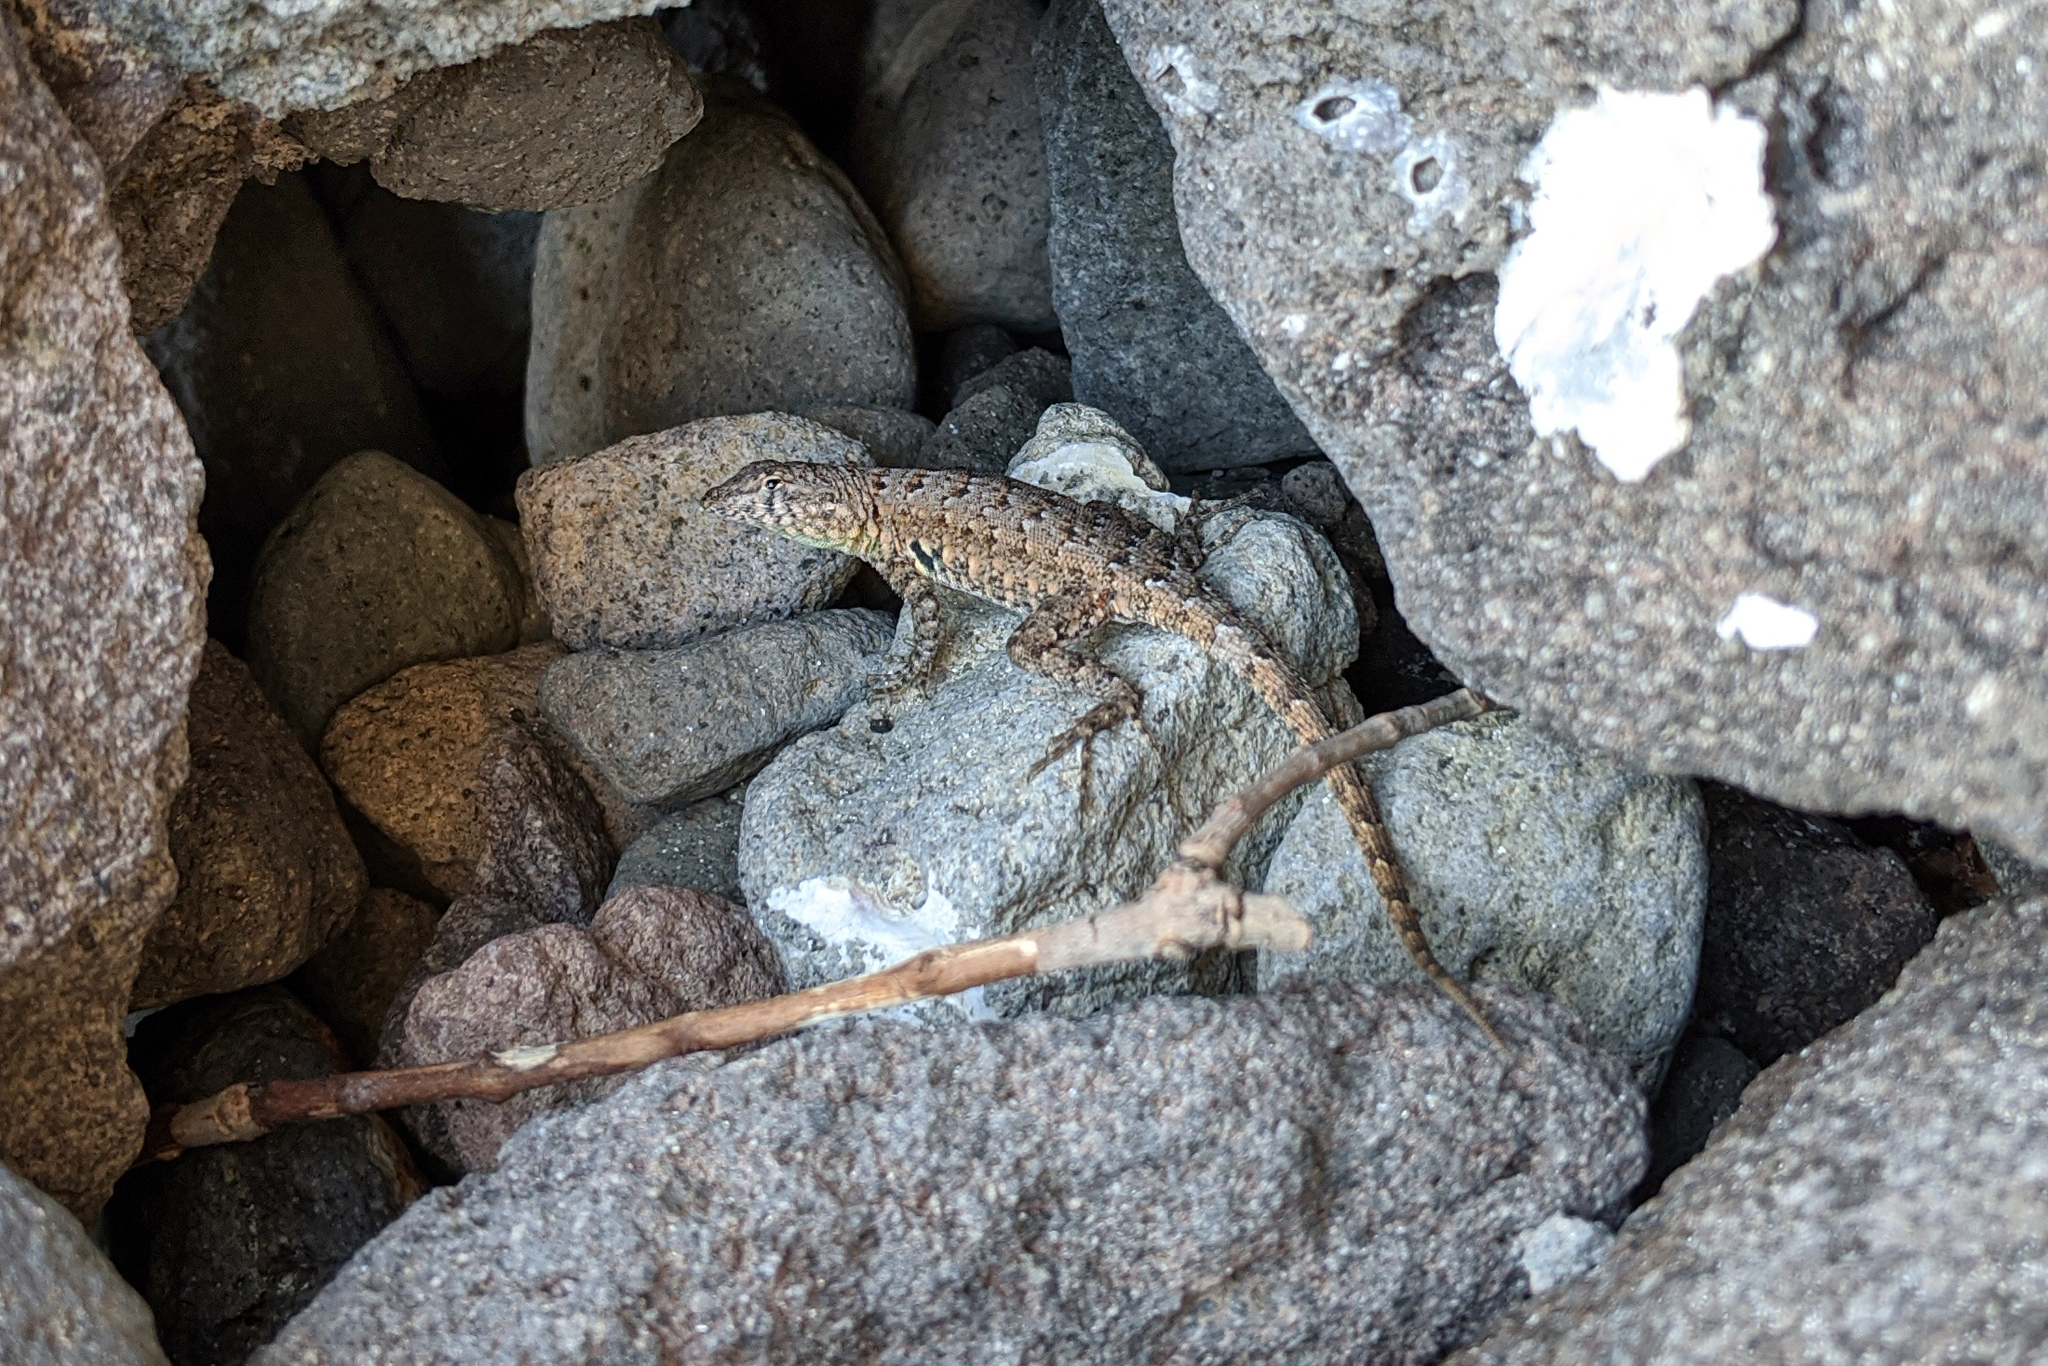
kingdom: Animalia
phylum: Chordata
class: Squamata
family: Phrynosomatidae
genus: Uta
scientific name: Uta stansburiana
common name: Side-blotched lizard
